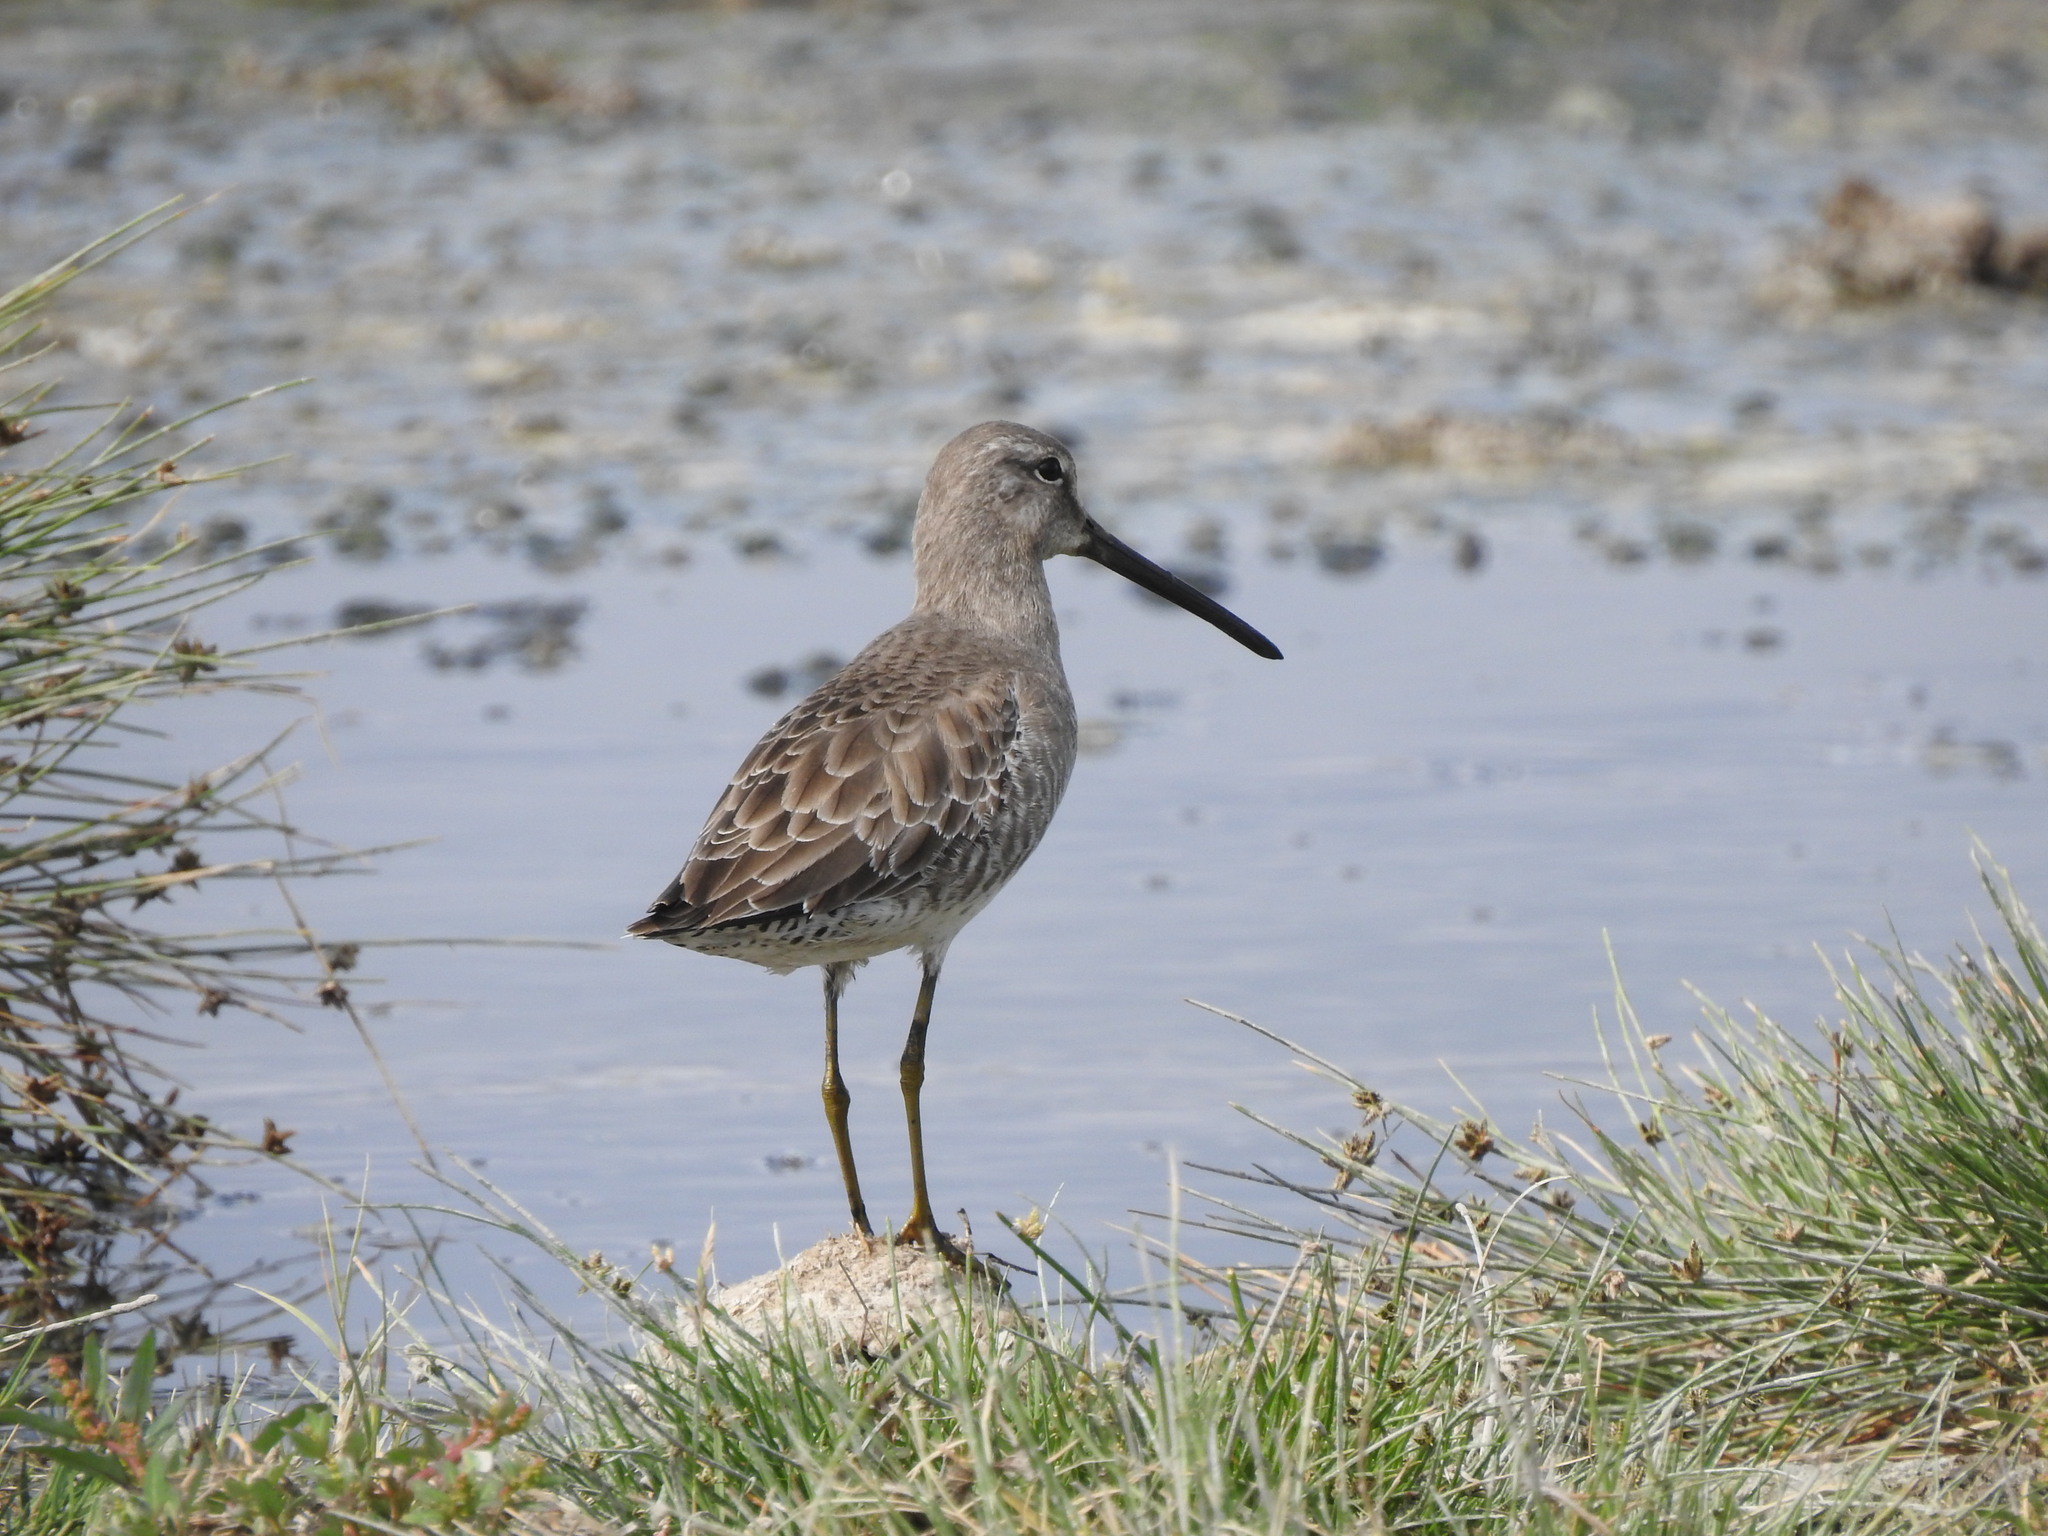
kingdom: Animalia
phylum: Chordata
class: Aves
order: Charadriiformes
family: Scolopacidae
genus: Limnodromus
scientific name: Limnodromus scolopaceus
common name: Long-billed dowitcher
